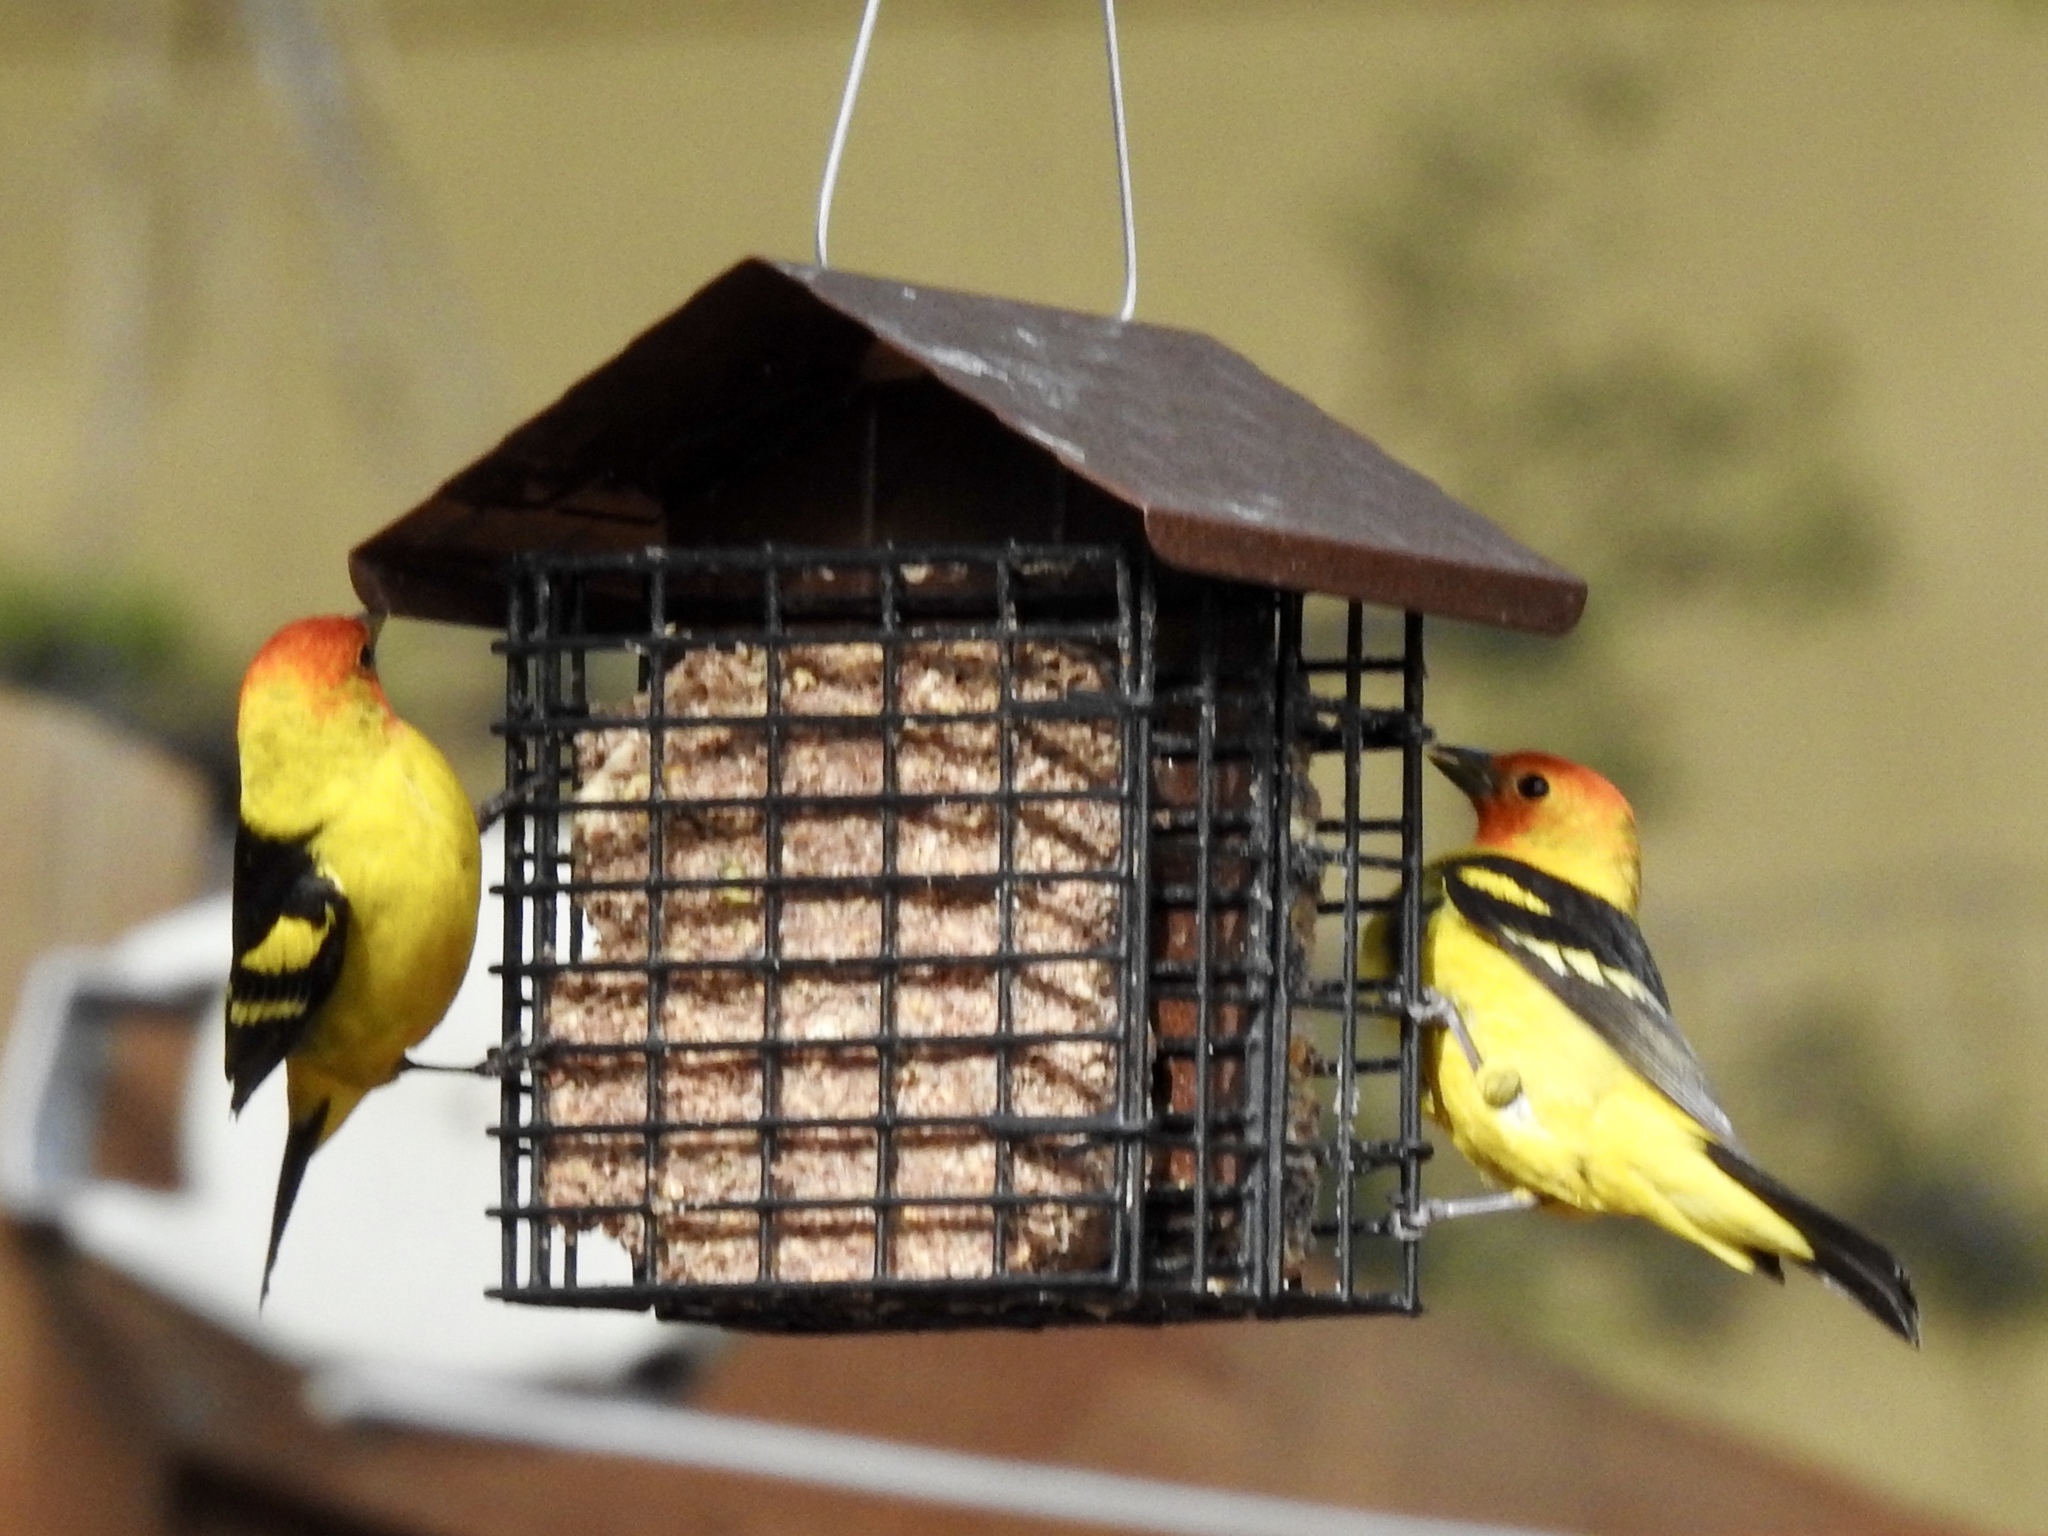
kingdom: Animalia
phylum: Chordata
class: Aves
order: Passeriformes
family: Cardinalidae
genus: Piranga
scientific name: Piranga ludoviciana
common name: Western tanager
